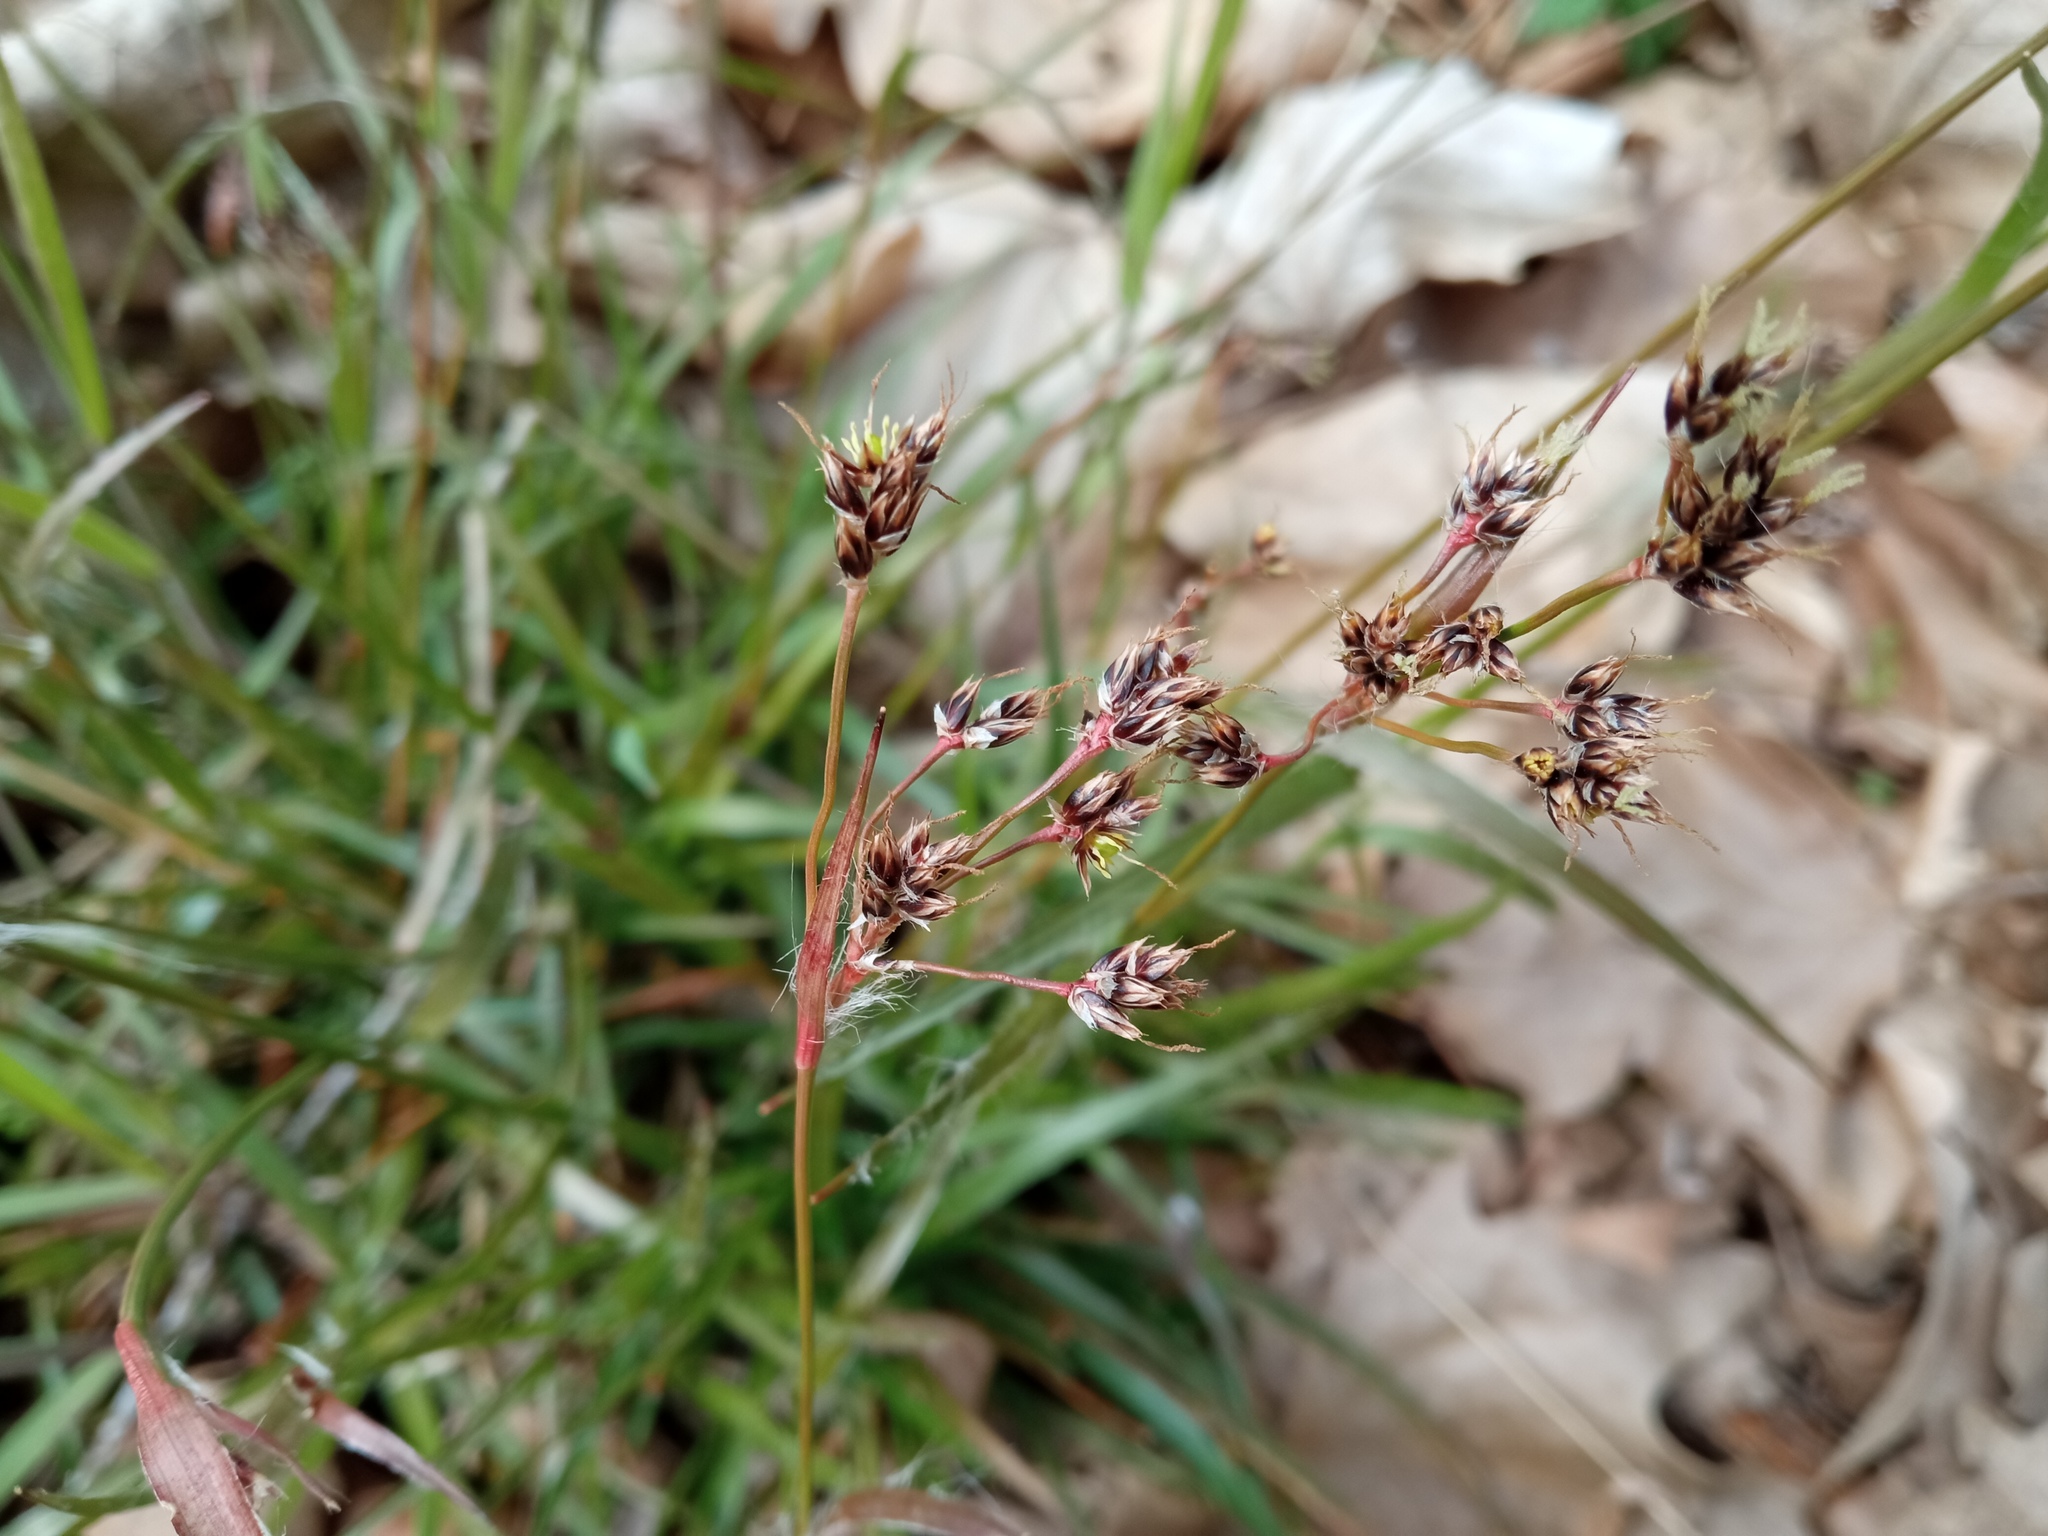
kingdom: Plantae
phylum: Tracheophyta
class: Liliopsida
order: Poales
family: Juncaceae
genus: Luzula
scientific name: Luzula campestris
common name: Field wood-rush
